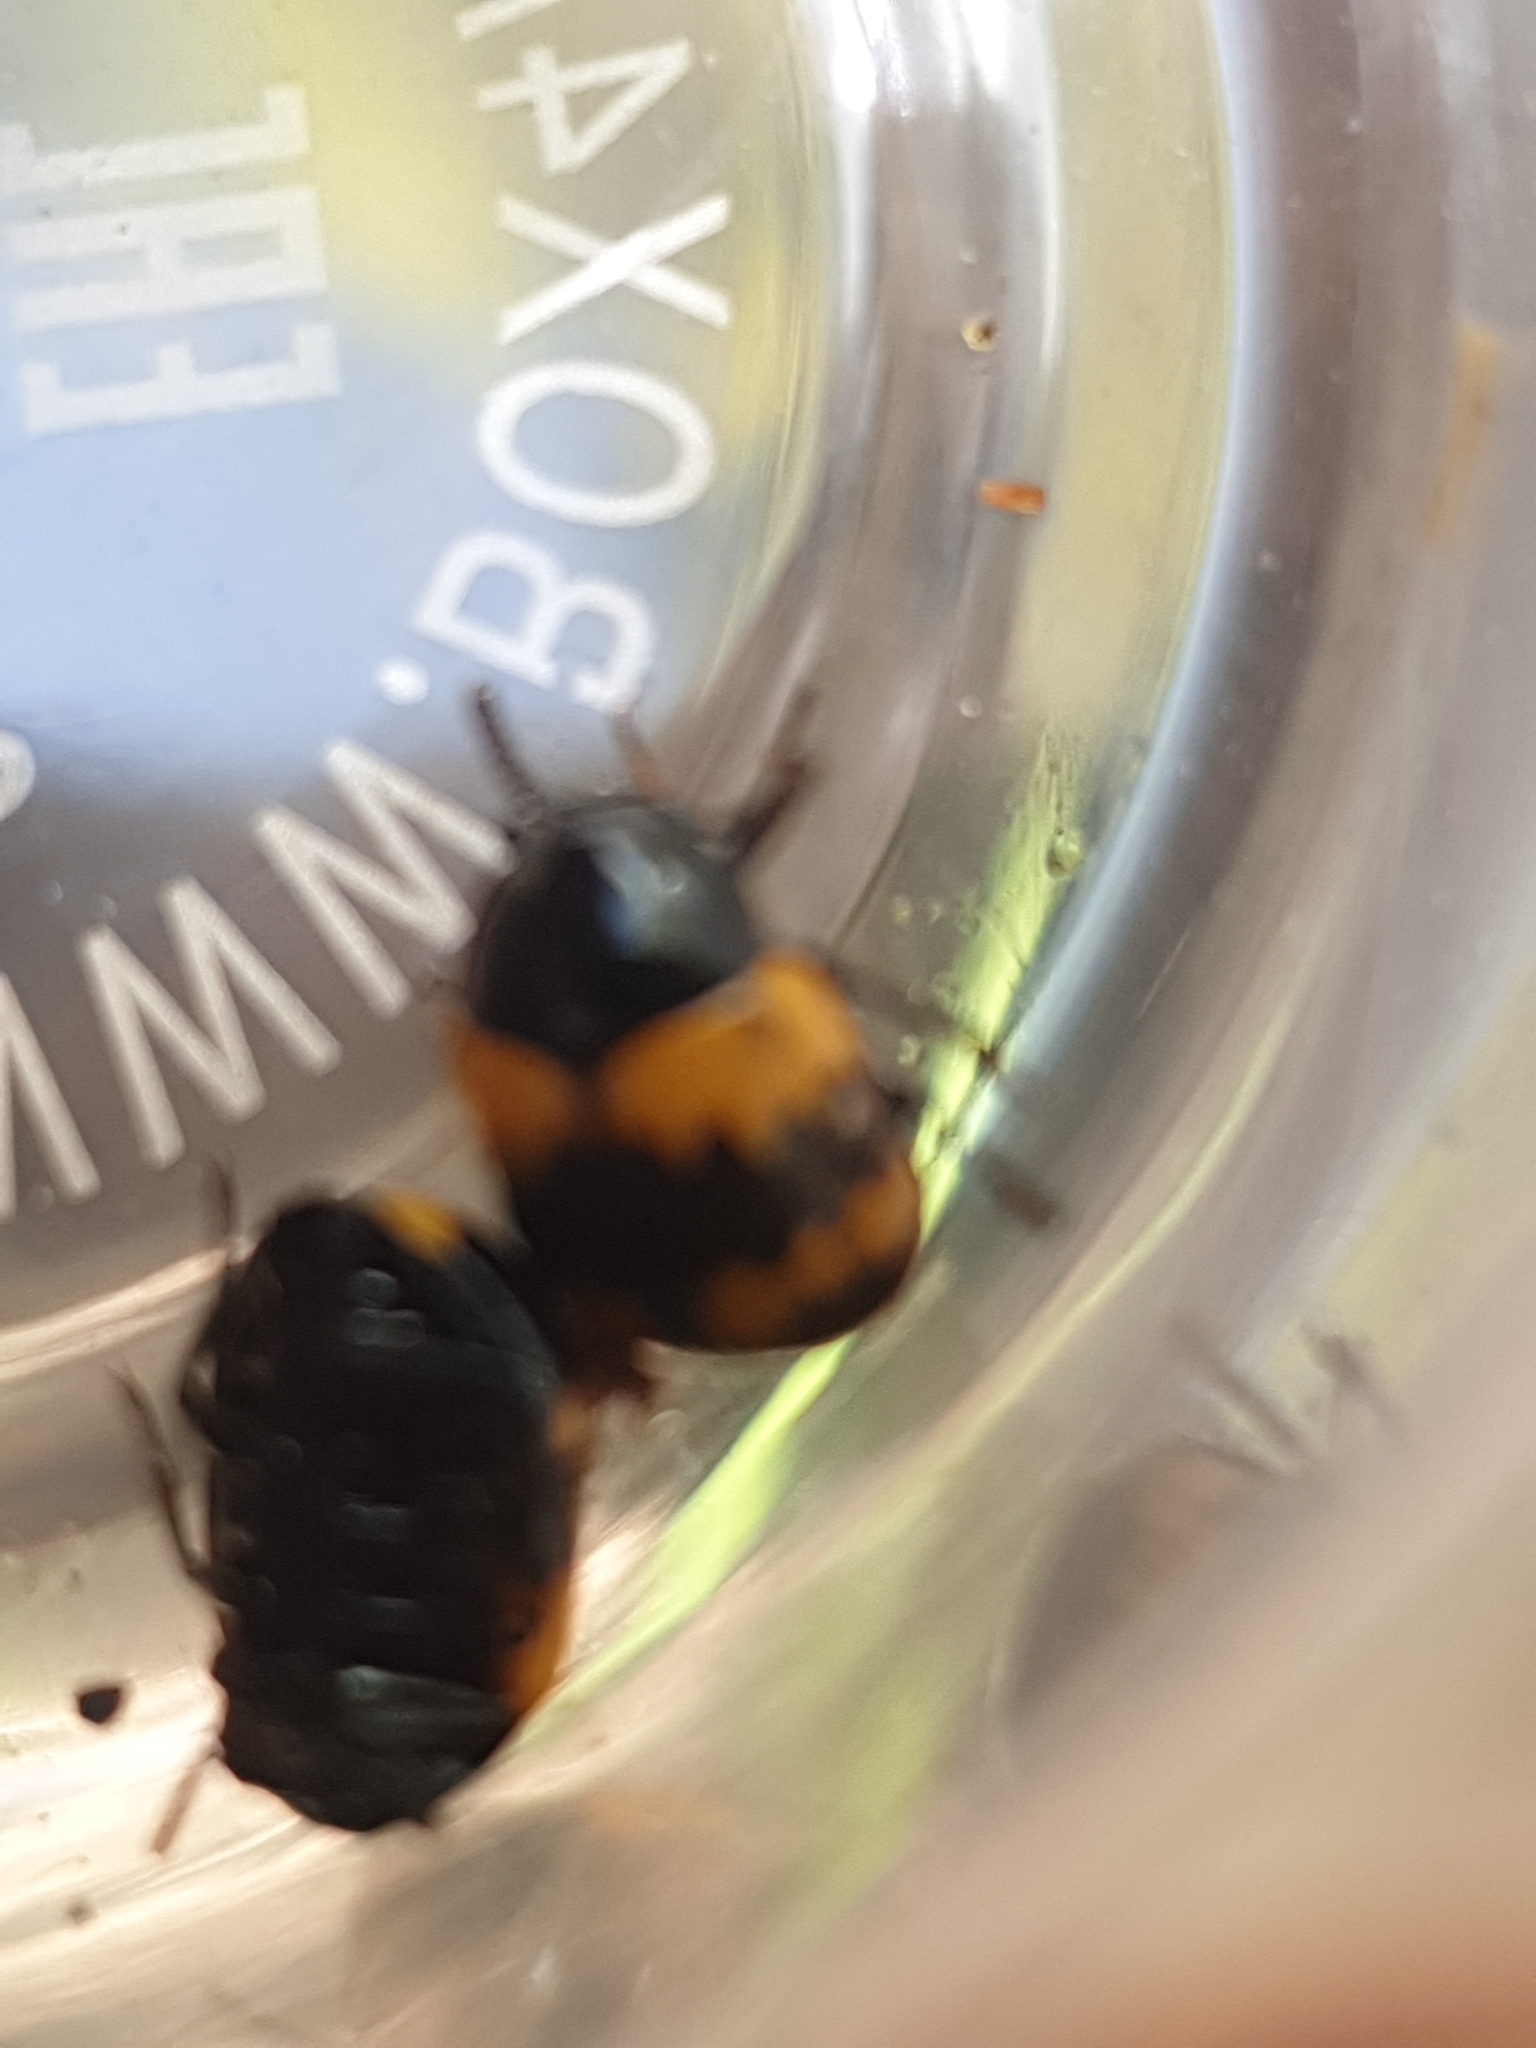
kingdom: Animalia
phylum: Arthropoda
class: Insecta
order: Coleoptera
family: Tenebrionidae
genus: Diaperis
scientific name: Diaperis boleti
